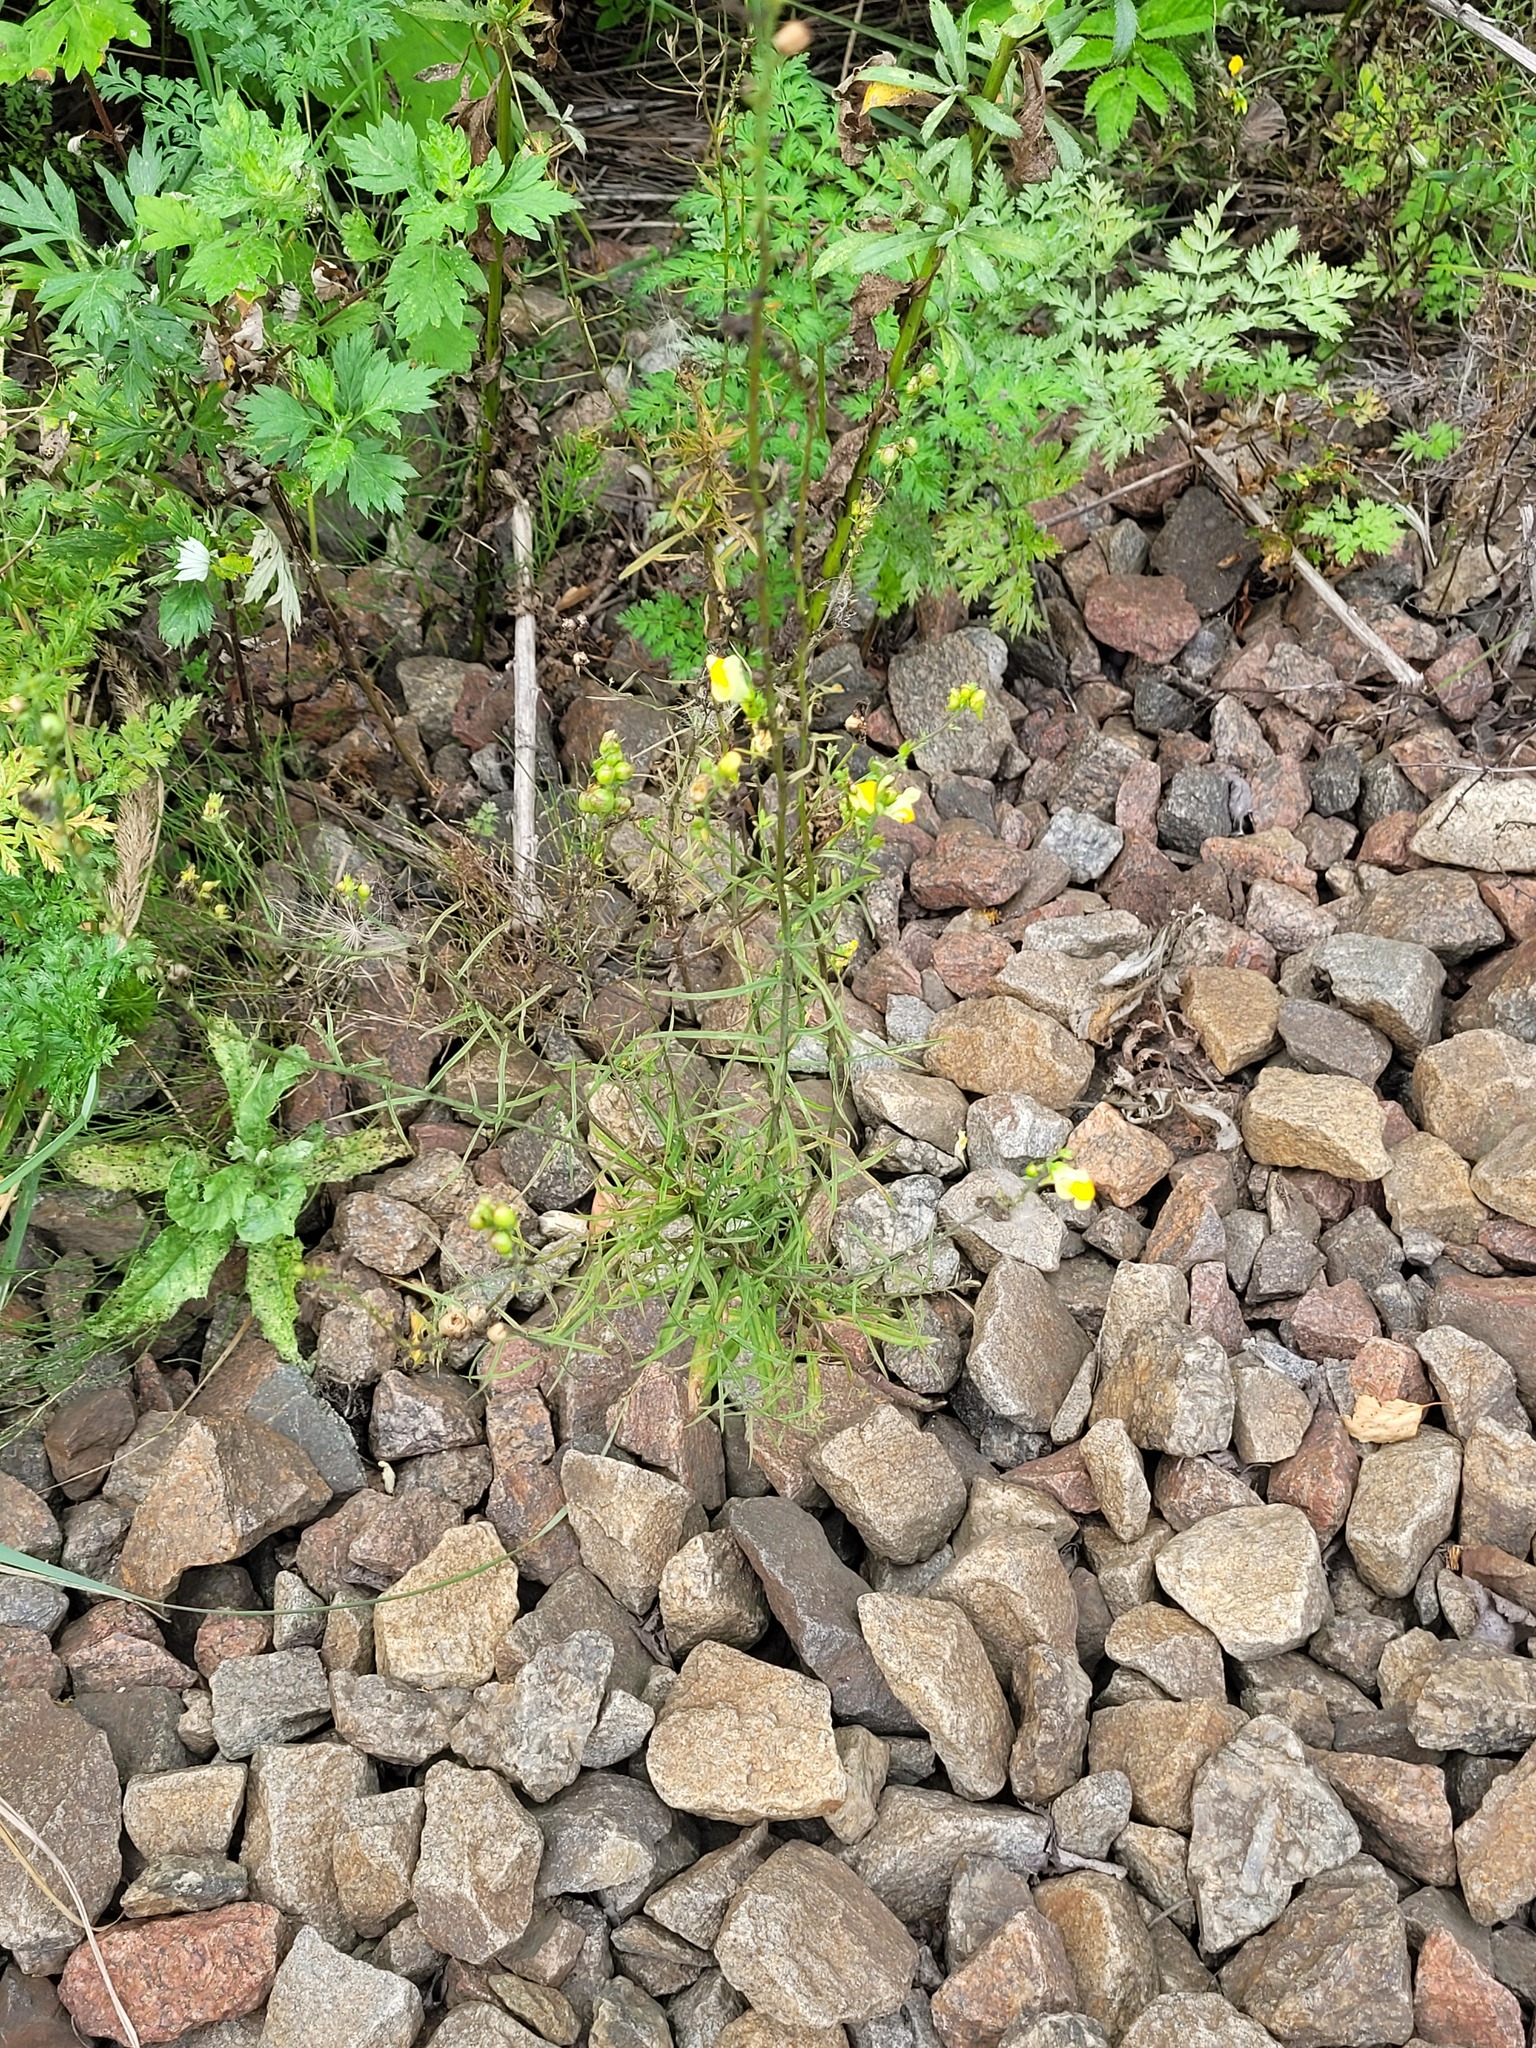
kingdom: Plantae
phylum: Tracheophyta
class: Magnoliopsida
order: Lamiales
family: Plantaginaceae
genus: Linaria
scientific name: Linaria vulgaris
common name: Butter and eggs
